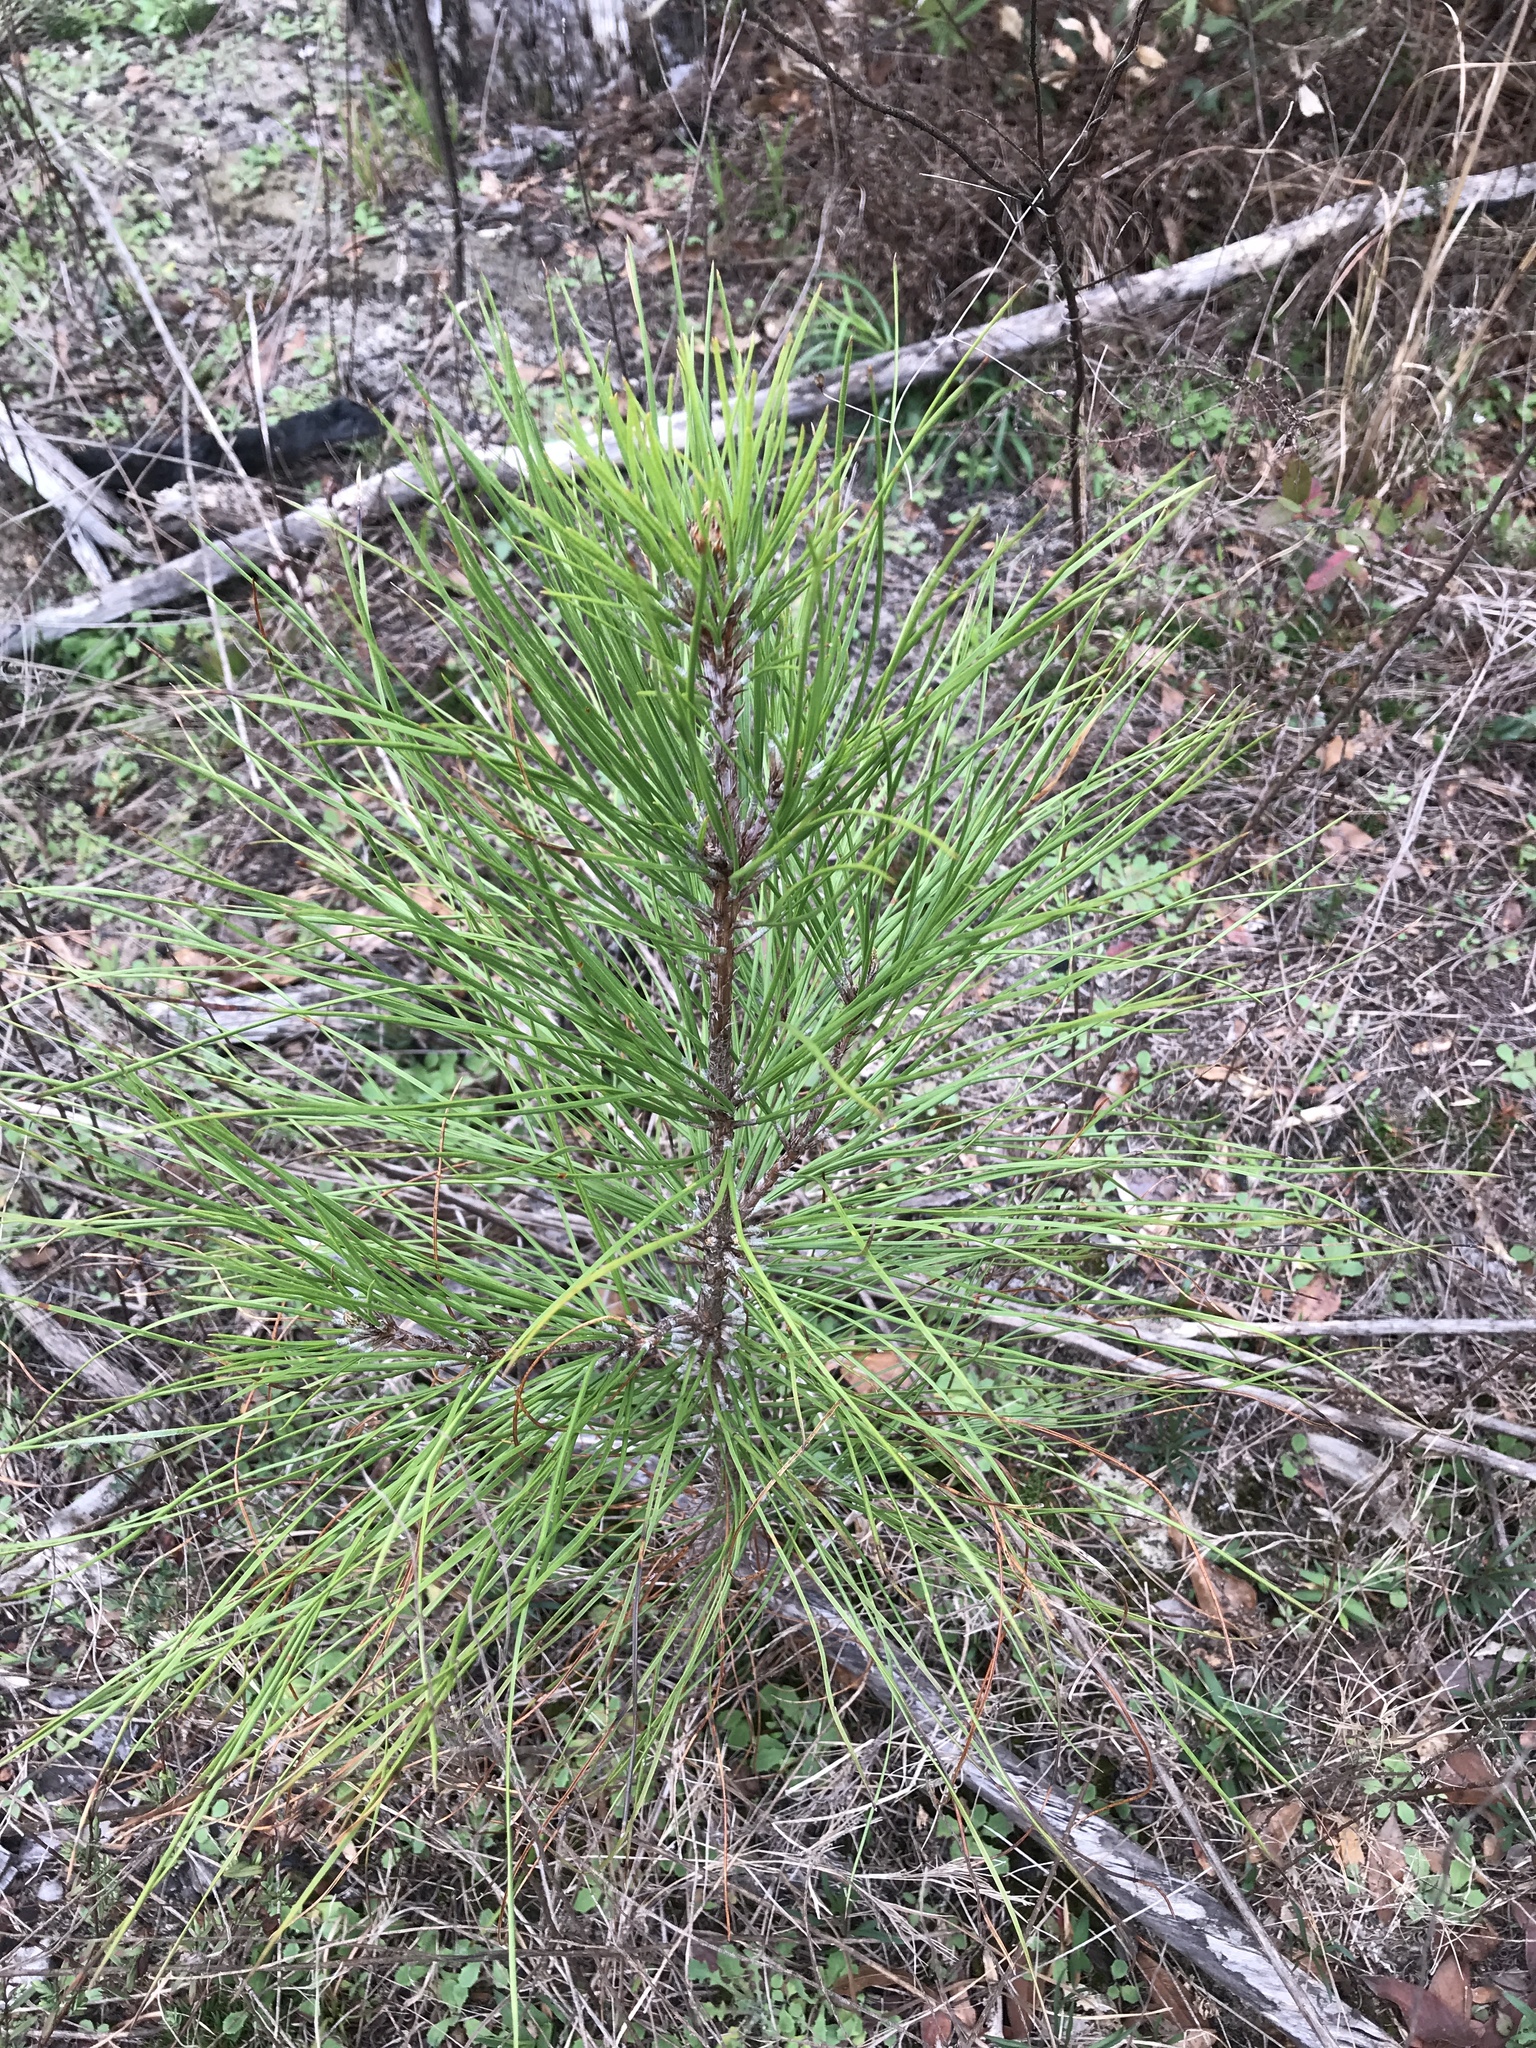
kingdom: Plantae
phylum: Tracheophyta
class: Pinopsida
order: Pinales
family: Pinaceae
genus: Pinus
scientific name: Pinus taeda
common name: Loblolly pine
